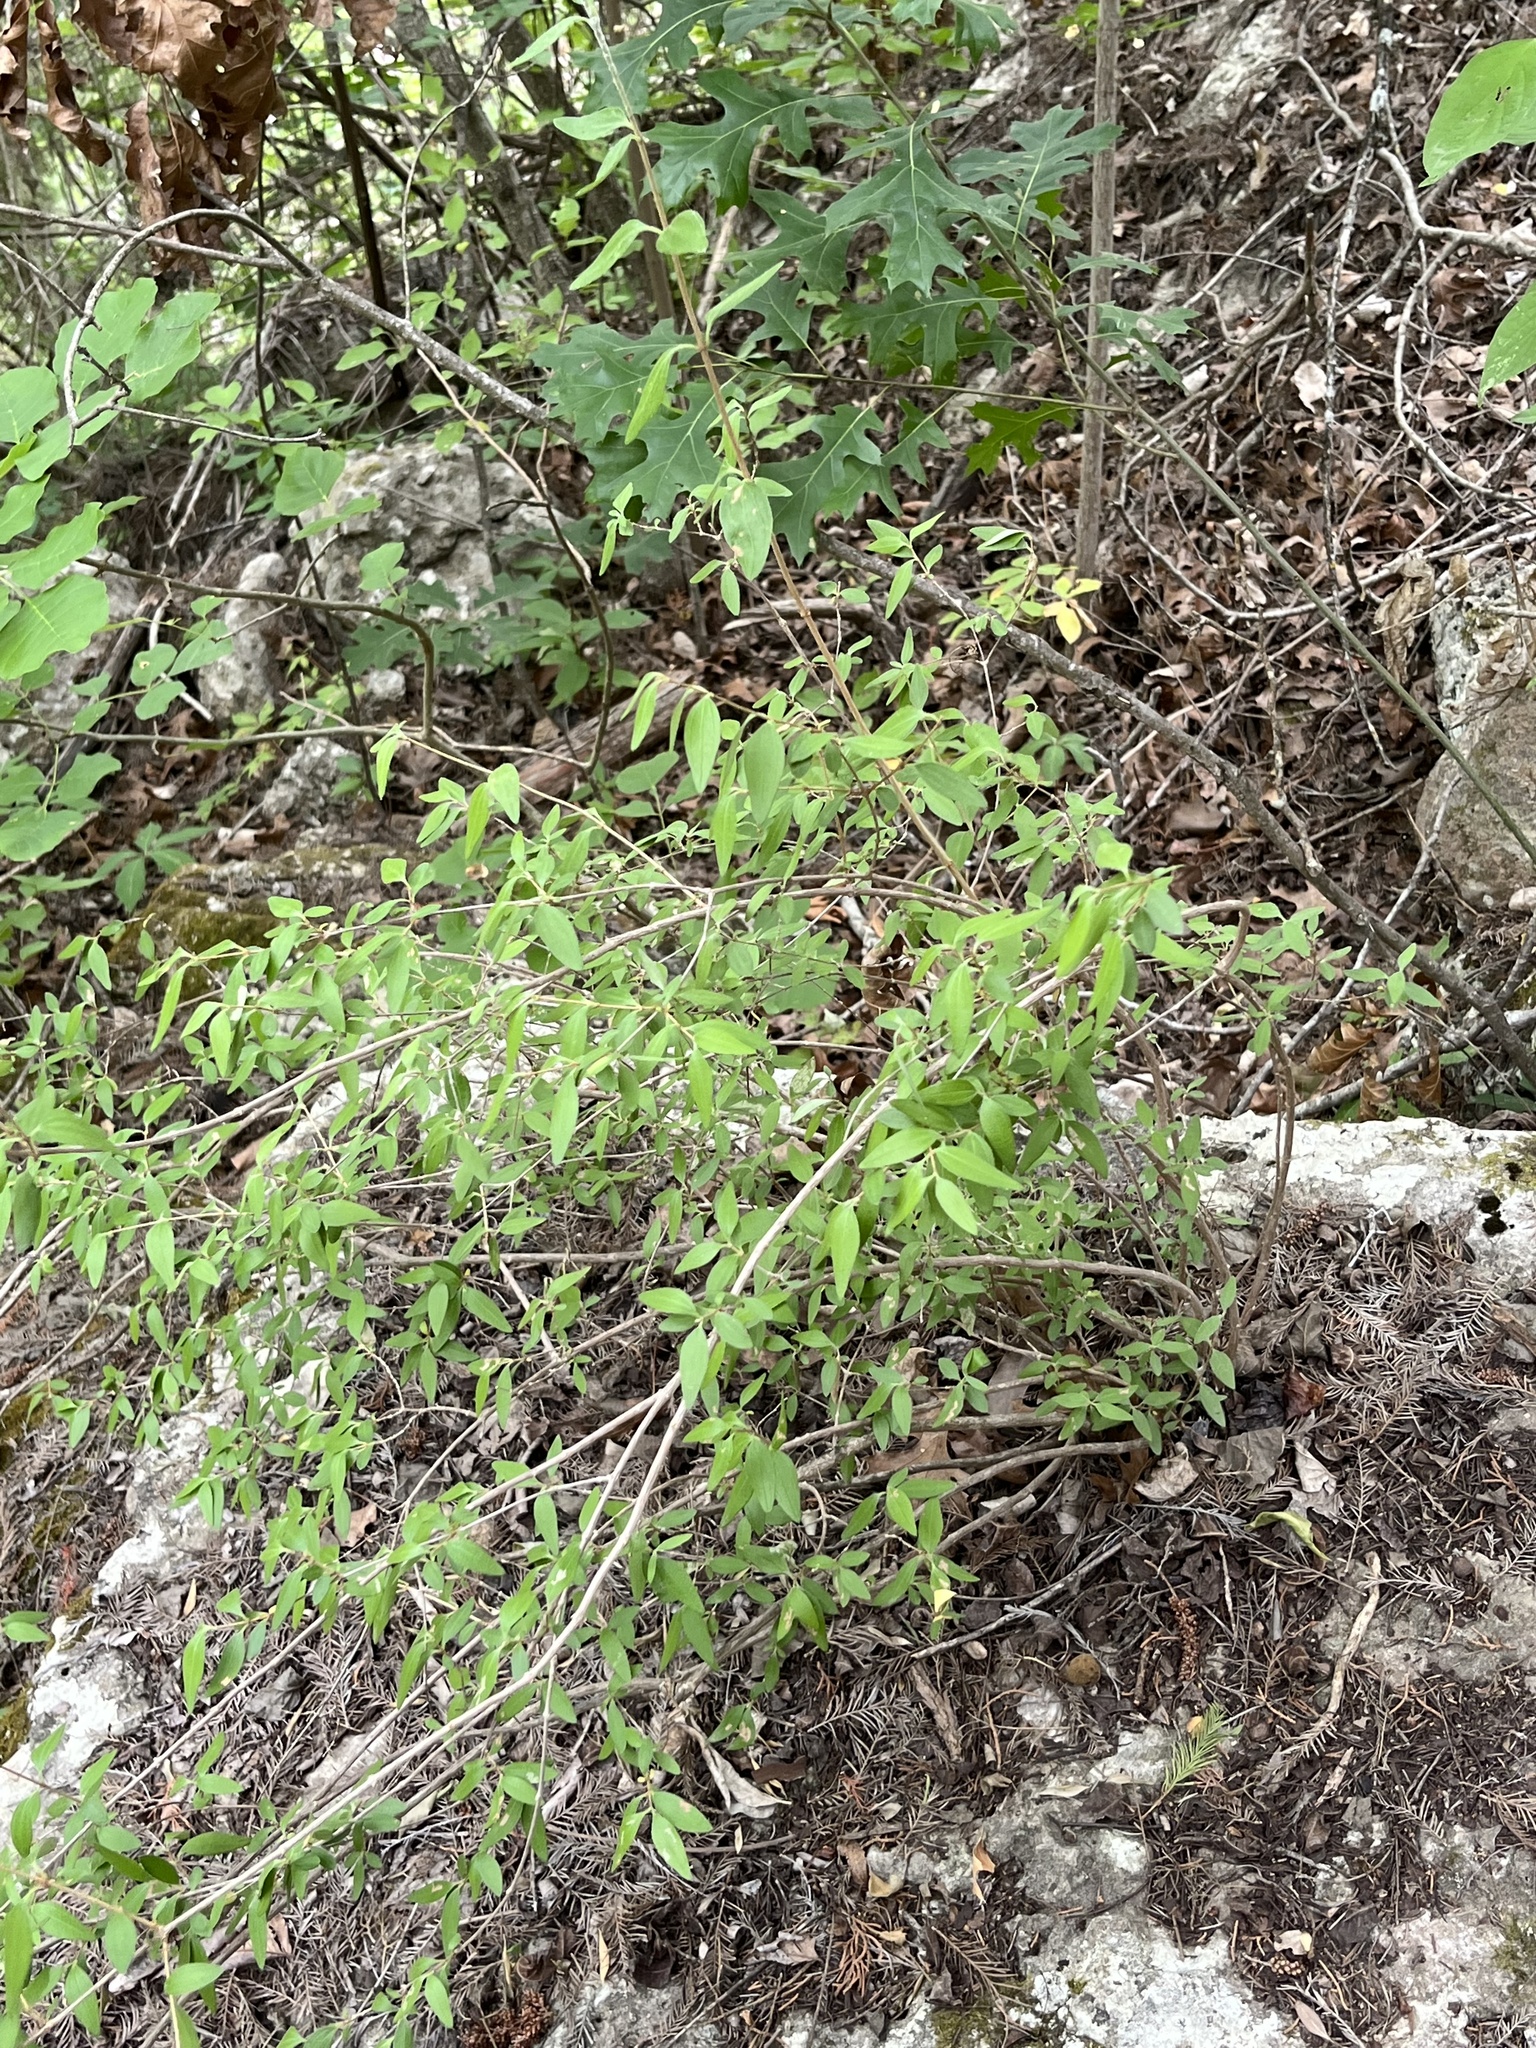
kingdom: Plantae
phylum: Tracheophyta
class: Magnoliopsida
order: Cornales
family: Hydrangeaceae
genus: Philadelphus
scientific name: Philadelphus texensis
